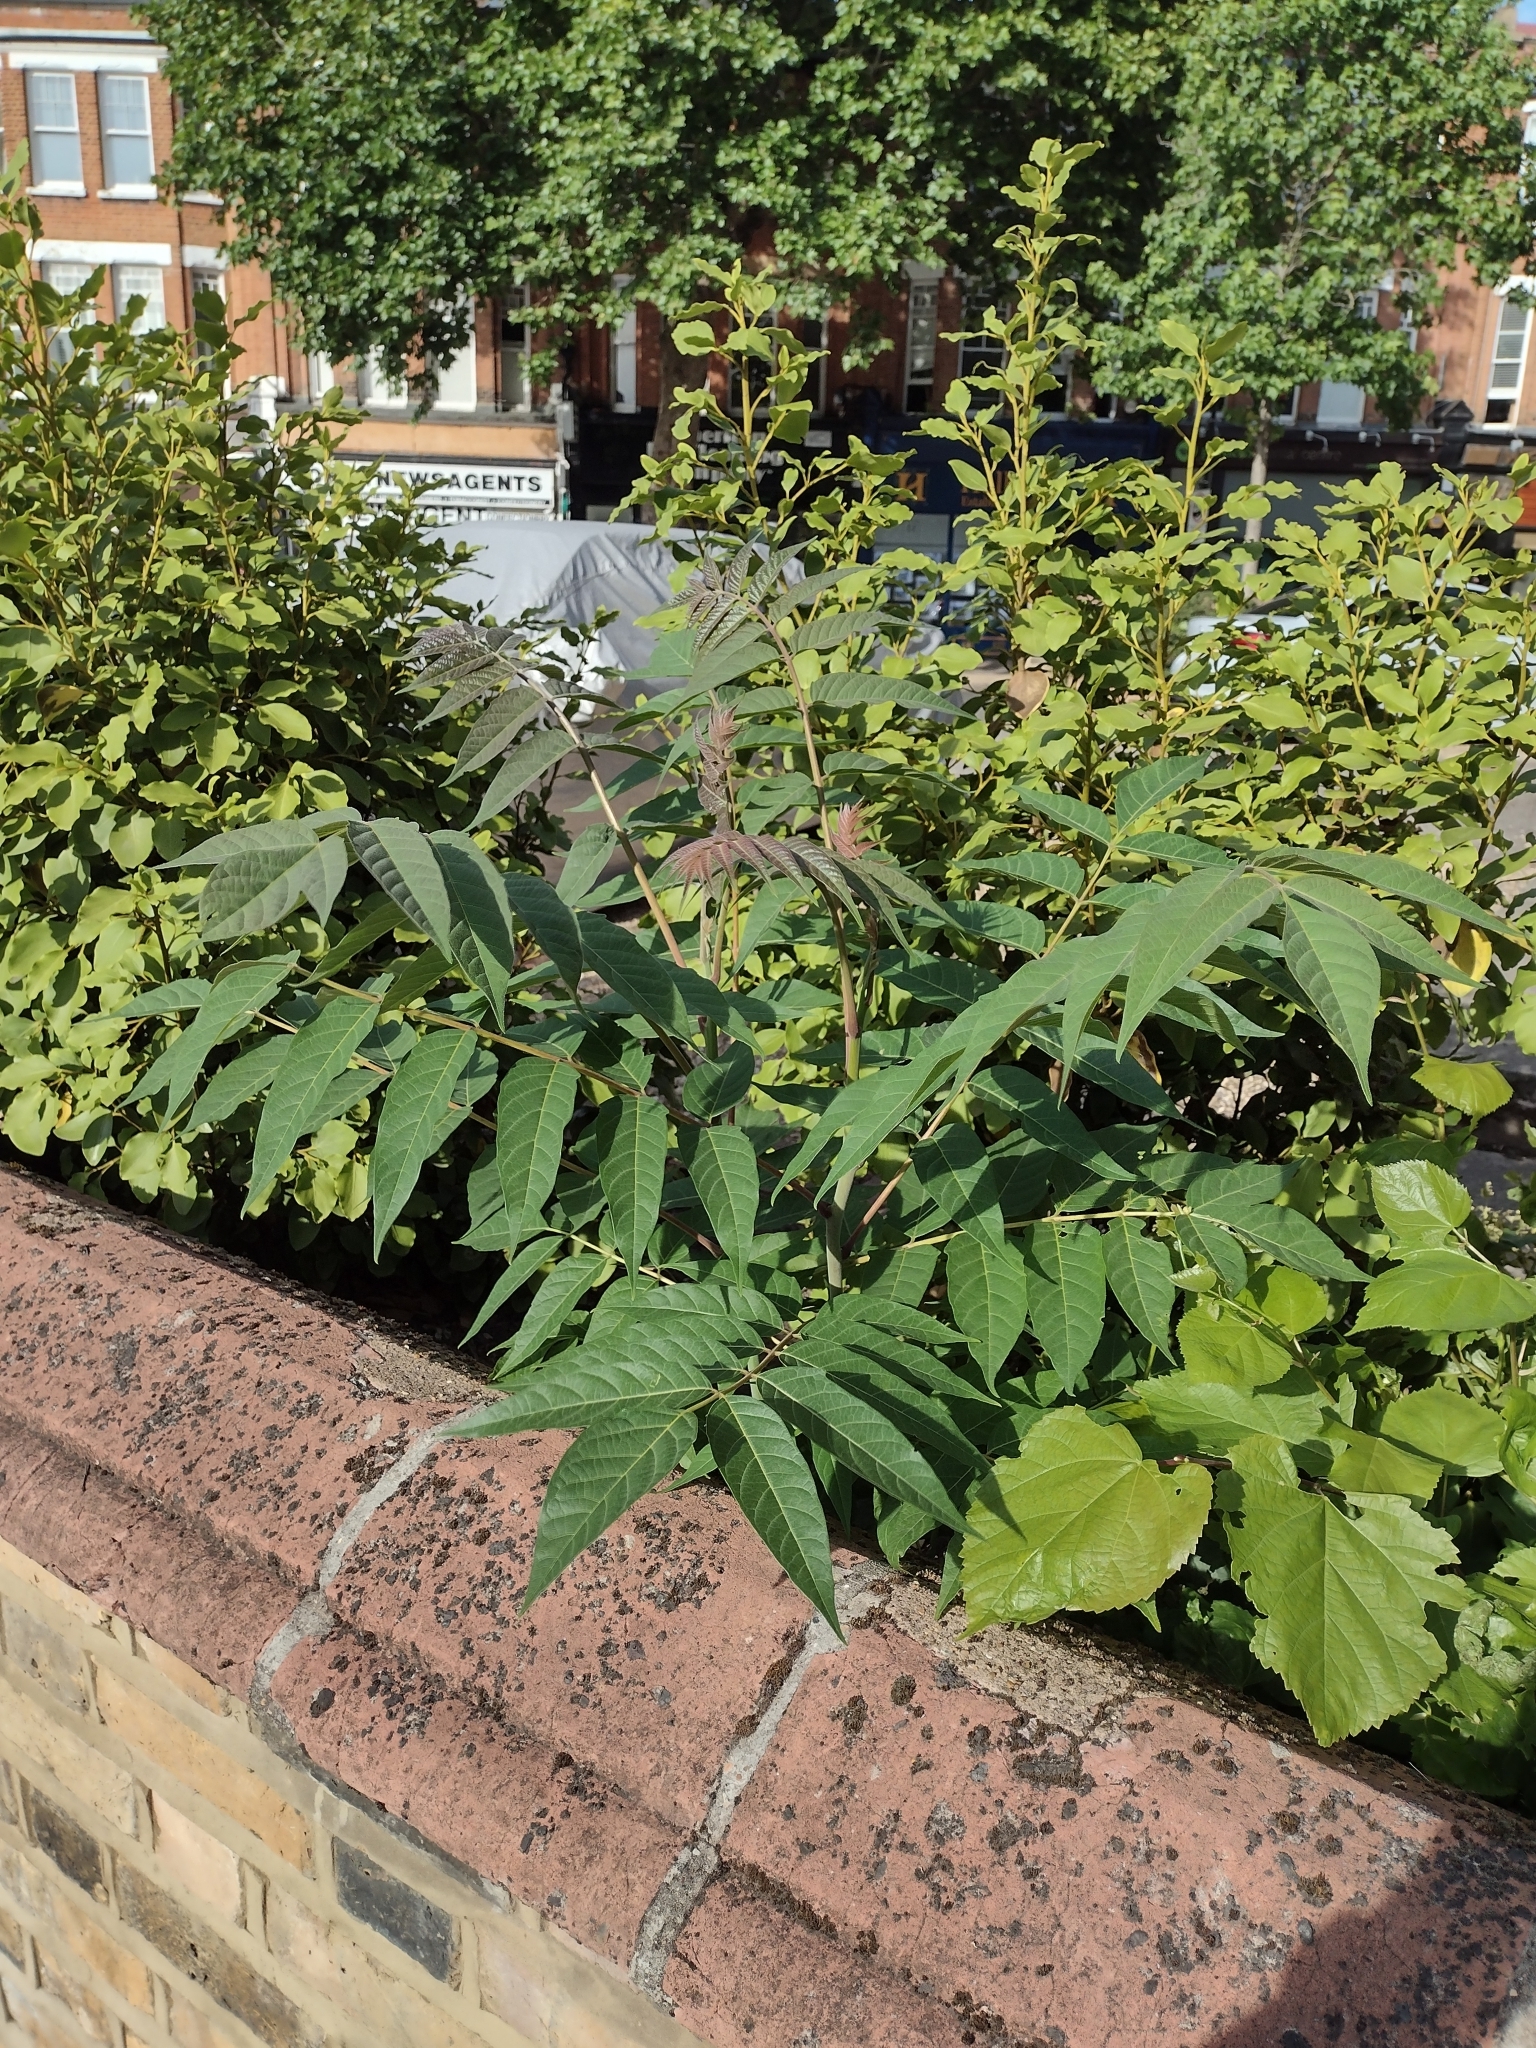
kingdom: Plantae
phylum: Tracheophyta
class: Magnoliopsida
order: Sapindales
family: Simaroubaceae
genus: Ailanthus
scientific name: Ailanthus altissima
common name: Tree-of-heaven
